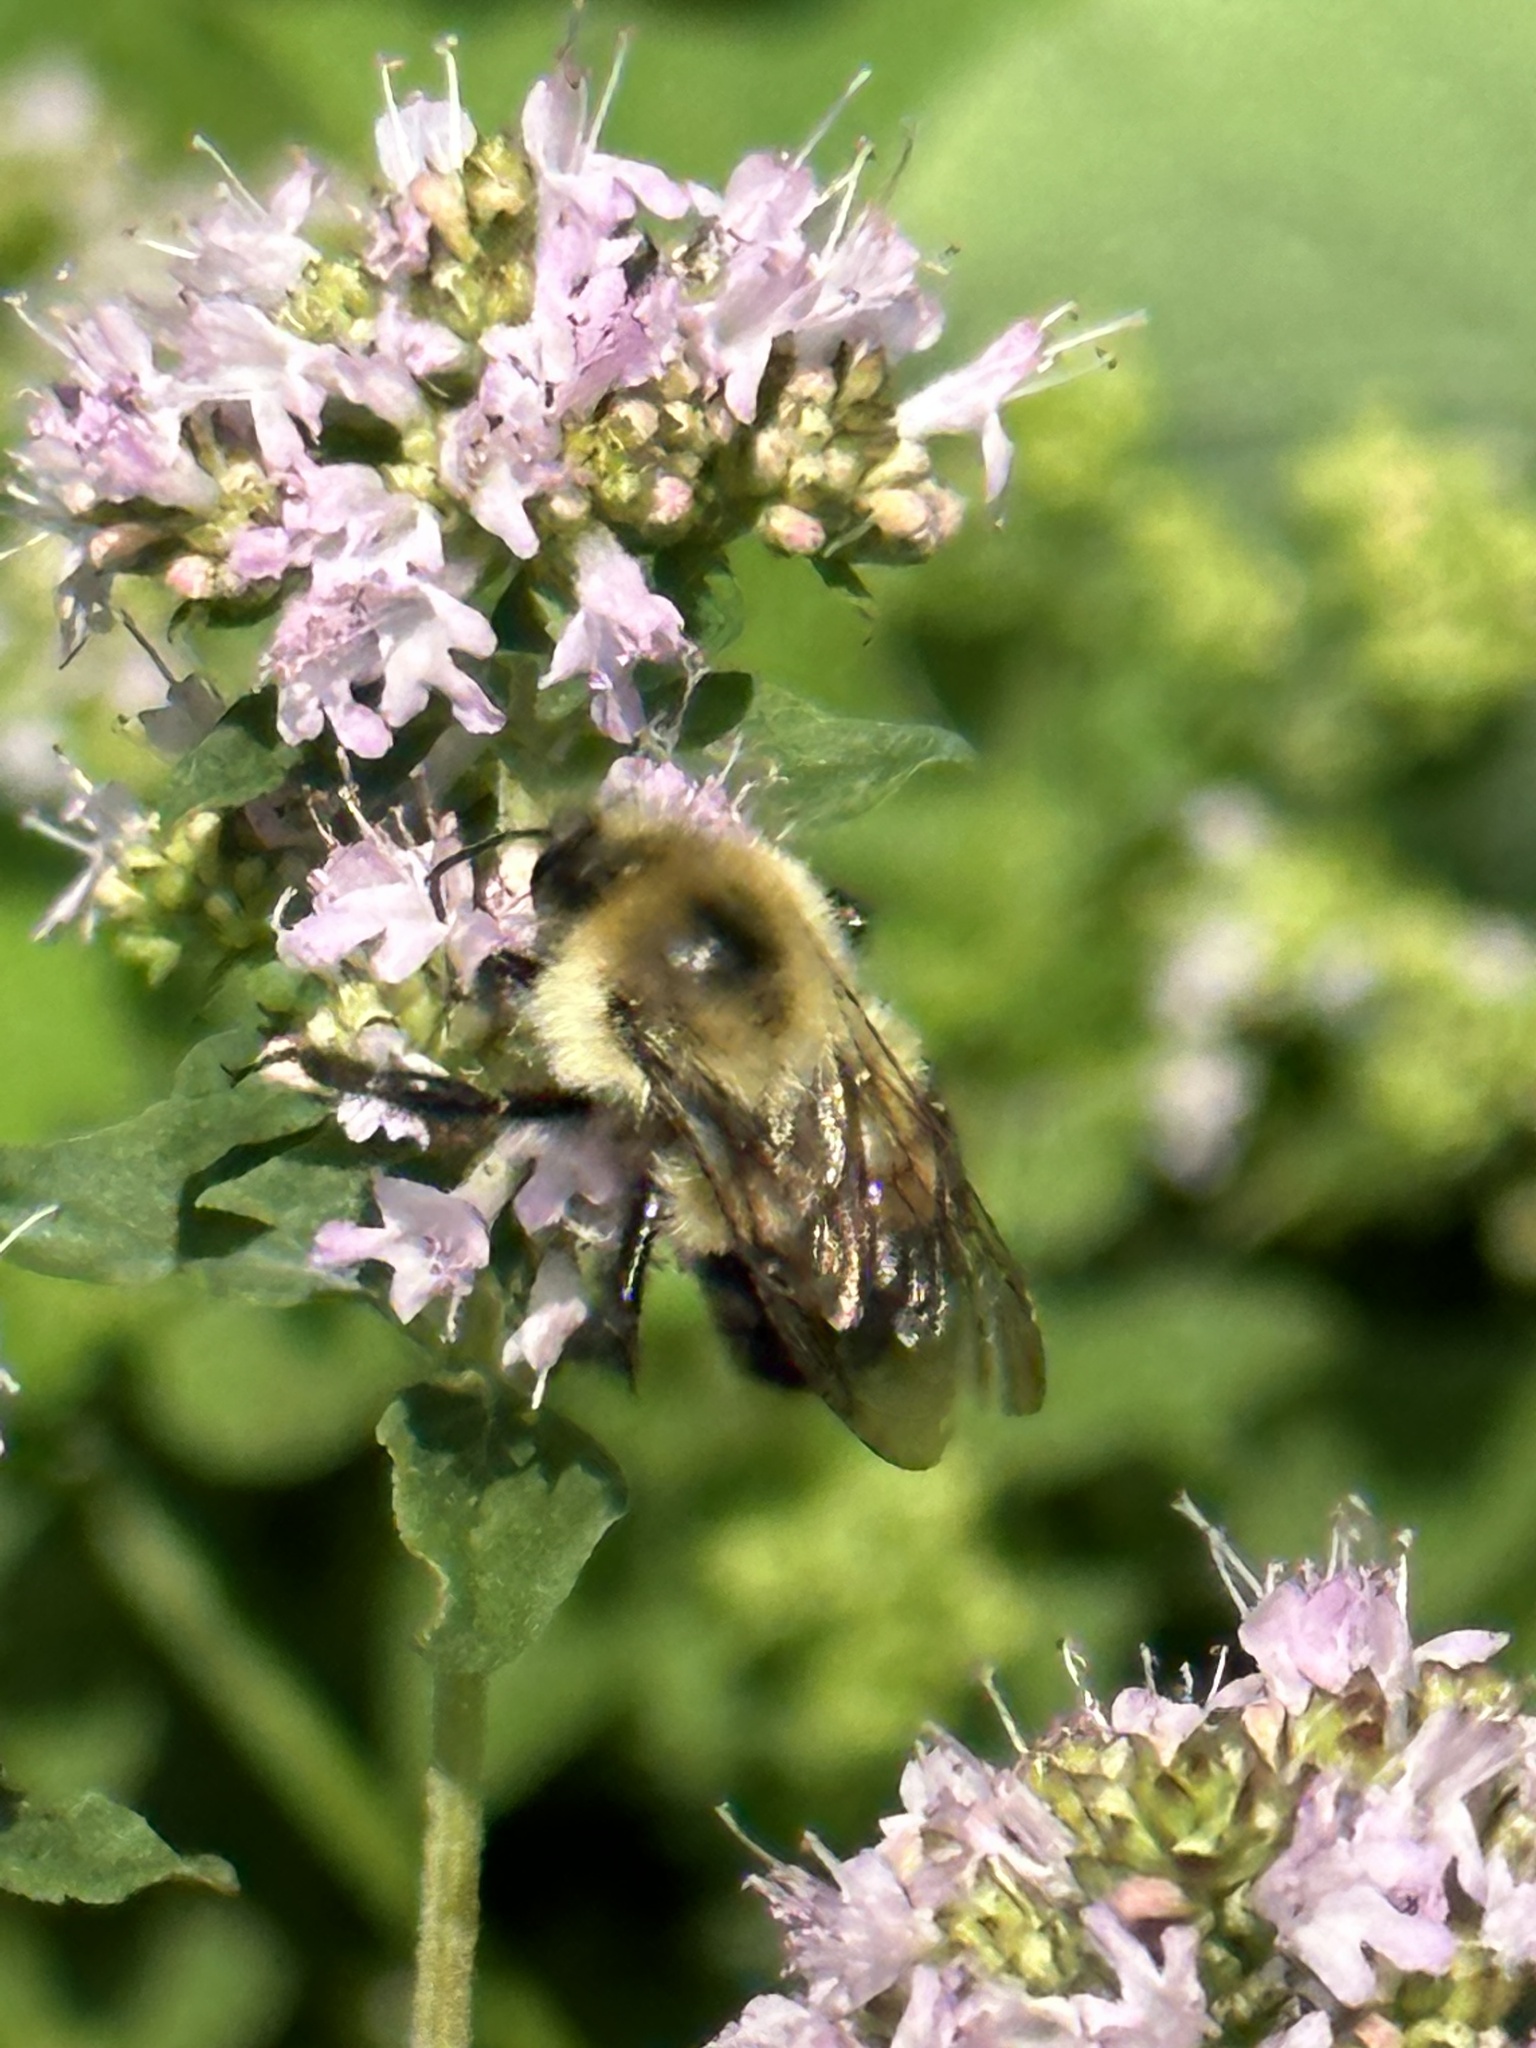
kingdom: Animalia
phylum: Arthropoda
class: Insecta
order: Hymenoptera
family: Apidae
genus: Bombus
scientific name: Bombus bimaculatus
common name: Two-spotted bumble bee
